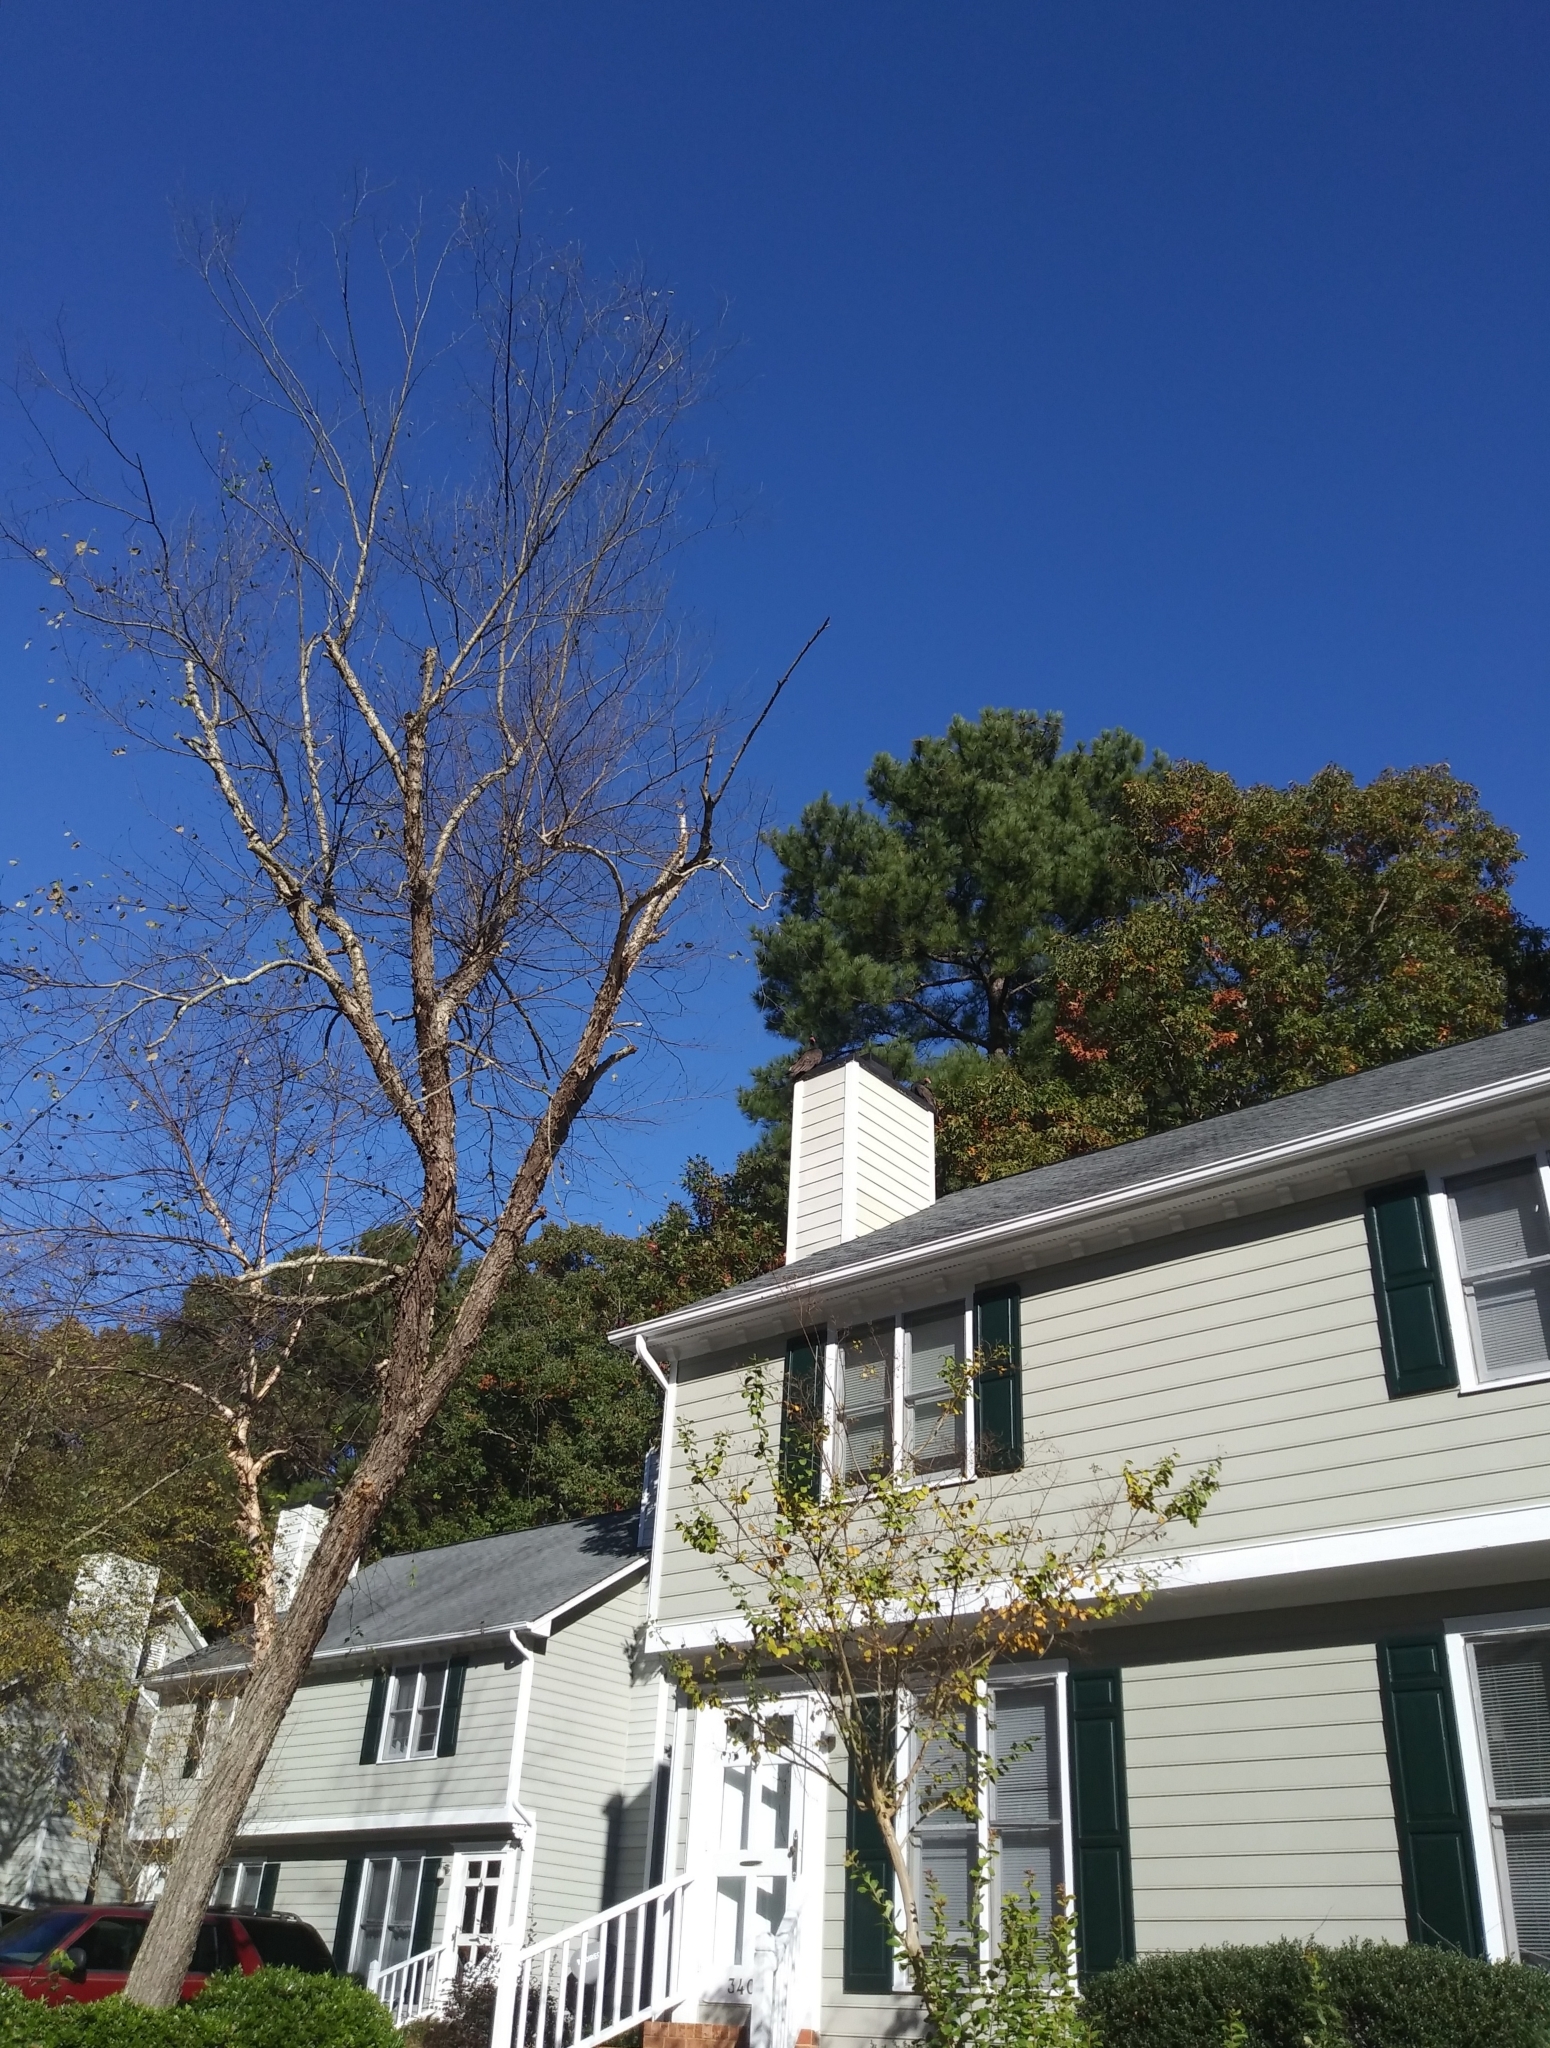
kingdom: Animalia
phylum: Chordata
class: Aves
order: Accipitriformes
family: Cathartidae
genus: Cathartes
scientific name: Cathartes aura
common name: Turkey vulture
